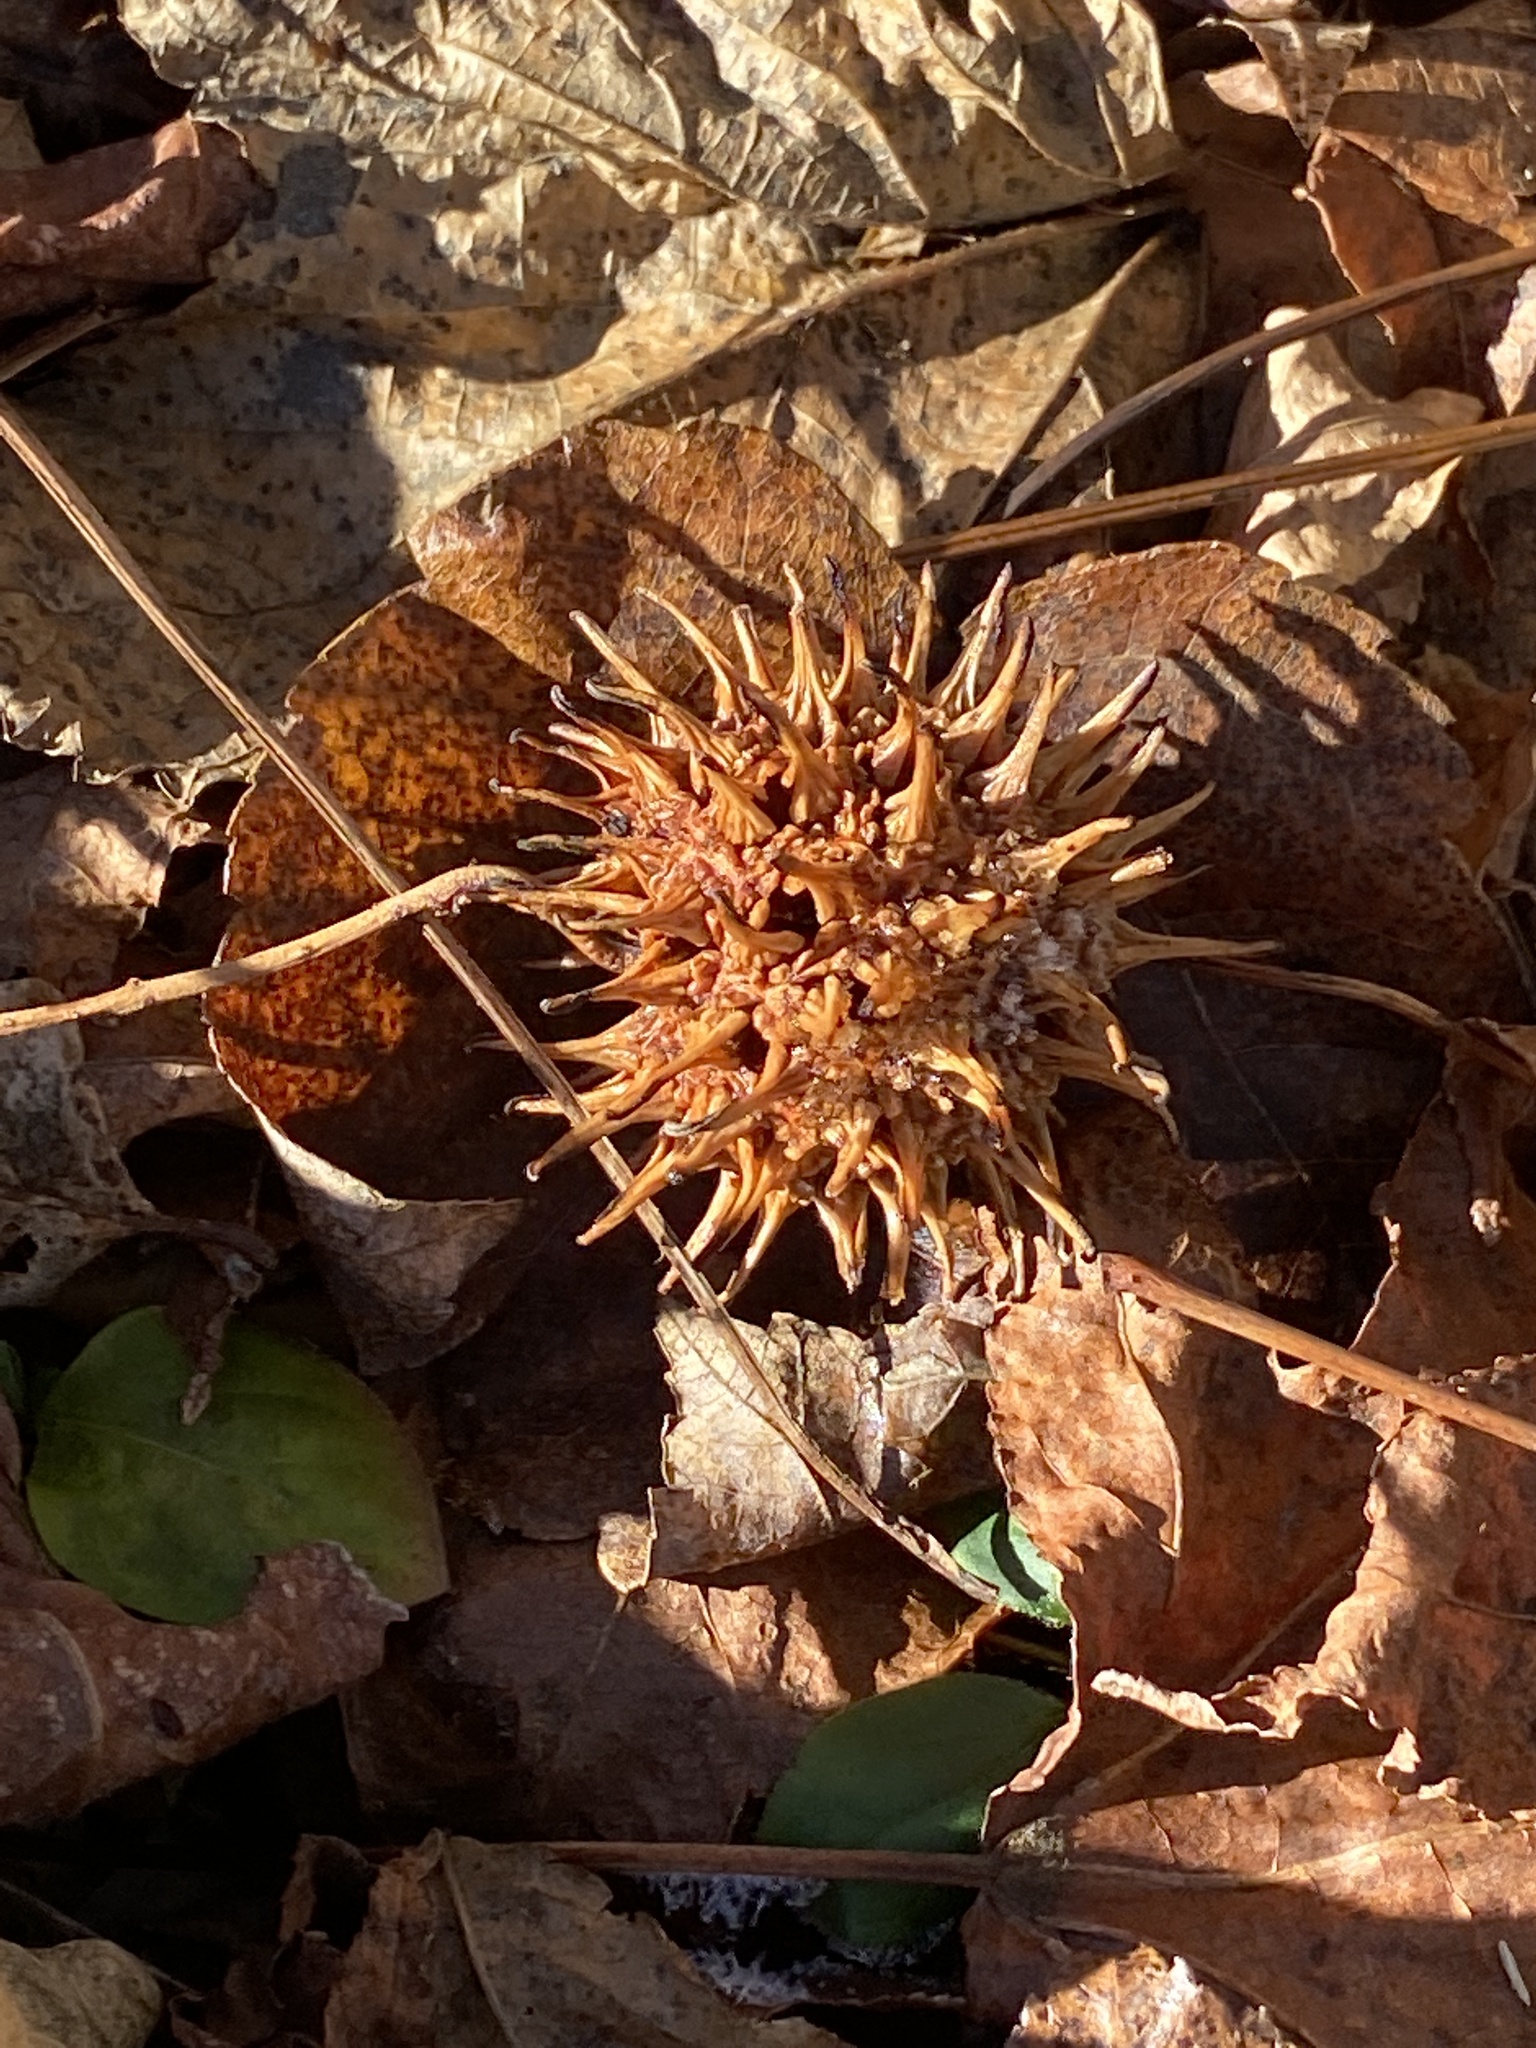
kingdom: Plantae
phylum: Tracheophyta
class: Magnoliopsida
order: Saxifragales
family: Altingiaceae
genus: Liquidambar
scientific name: Liquidambar styraciflua
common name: Sweet gum
